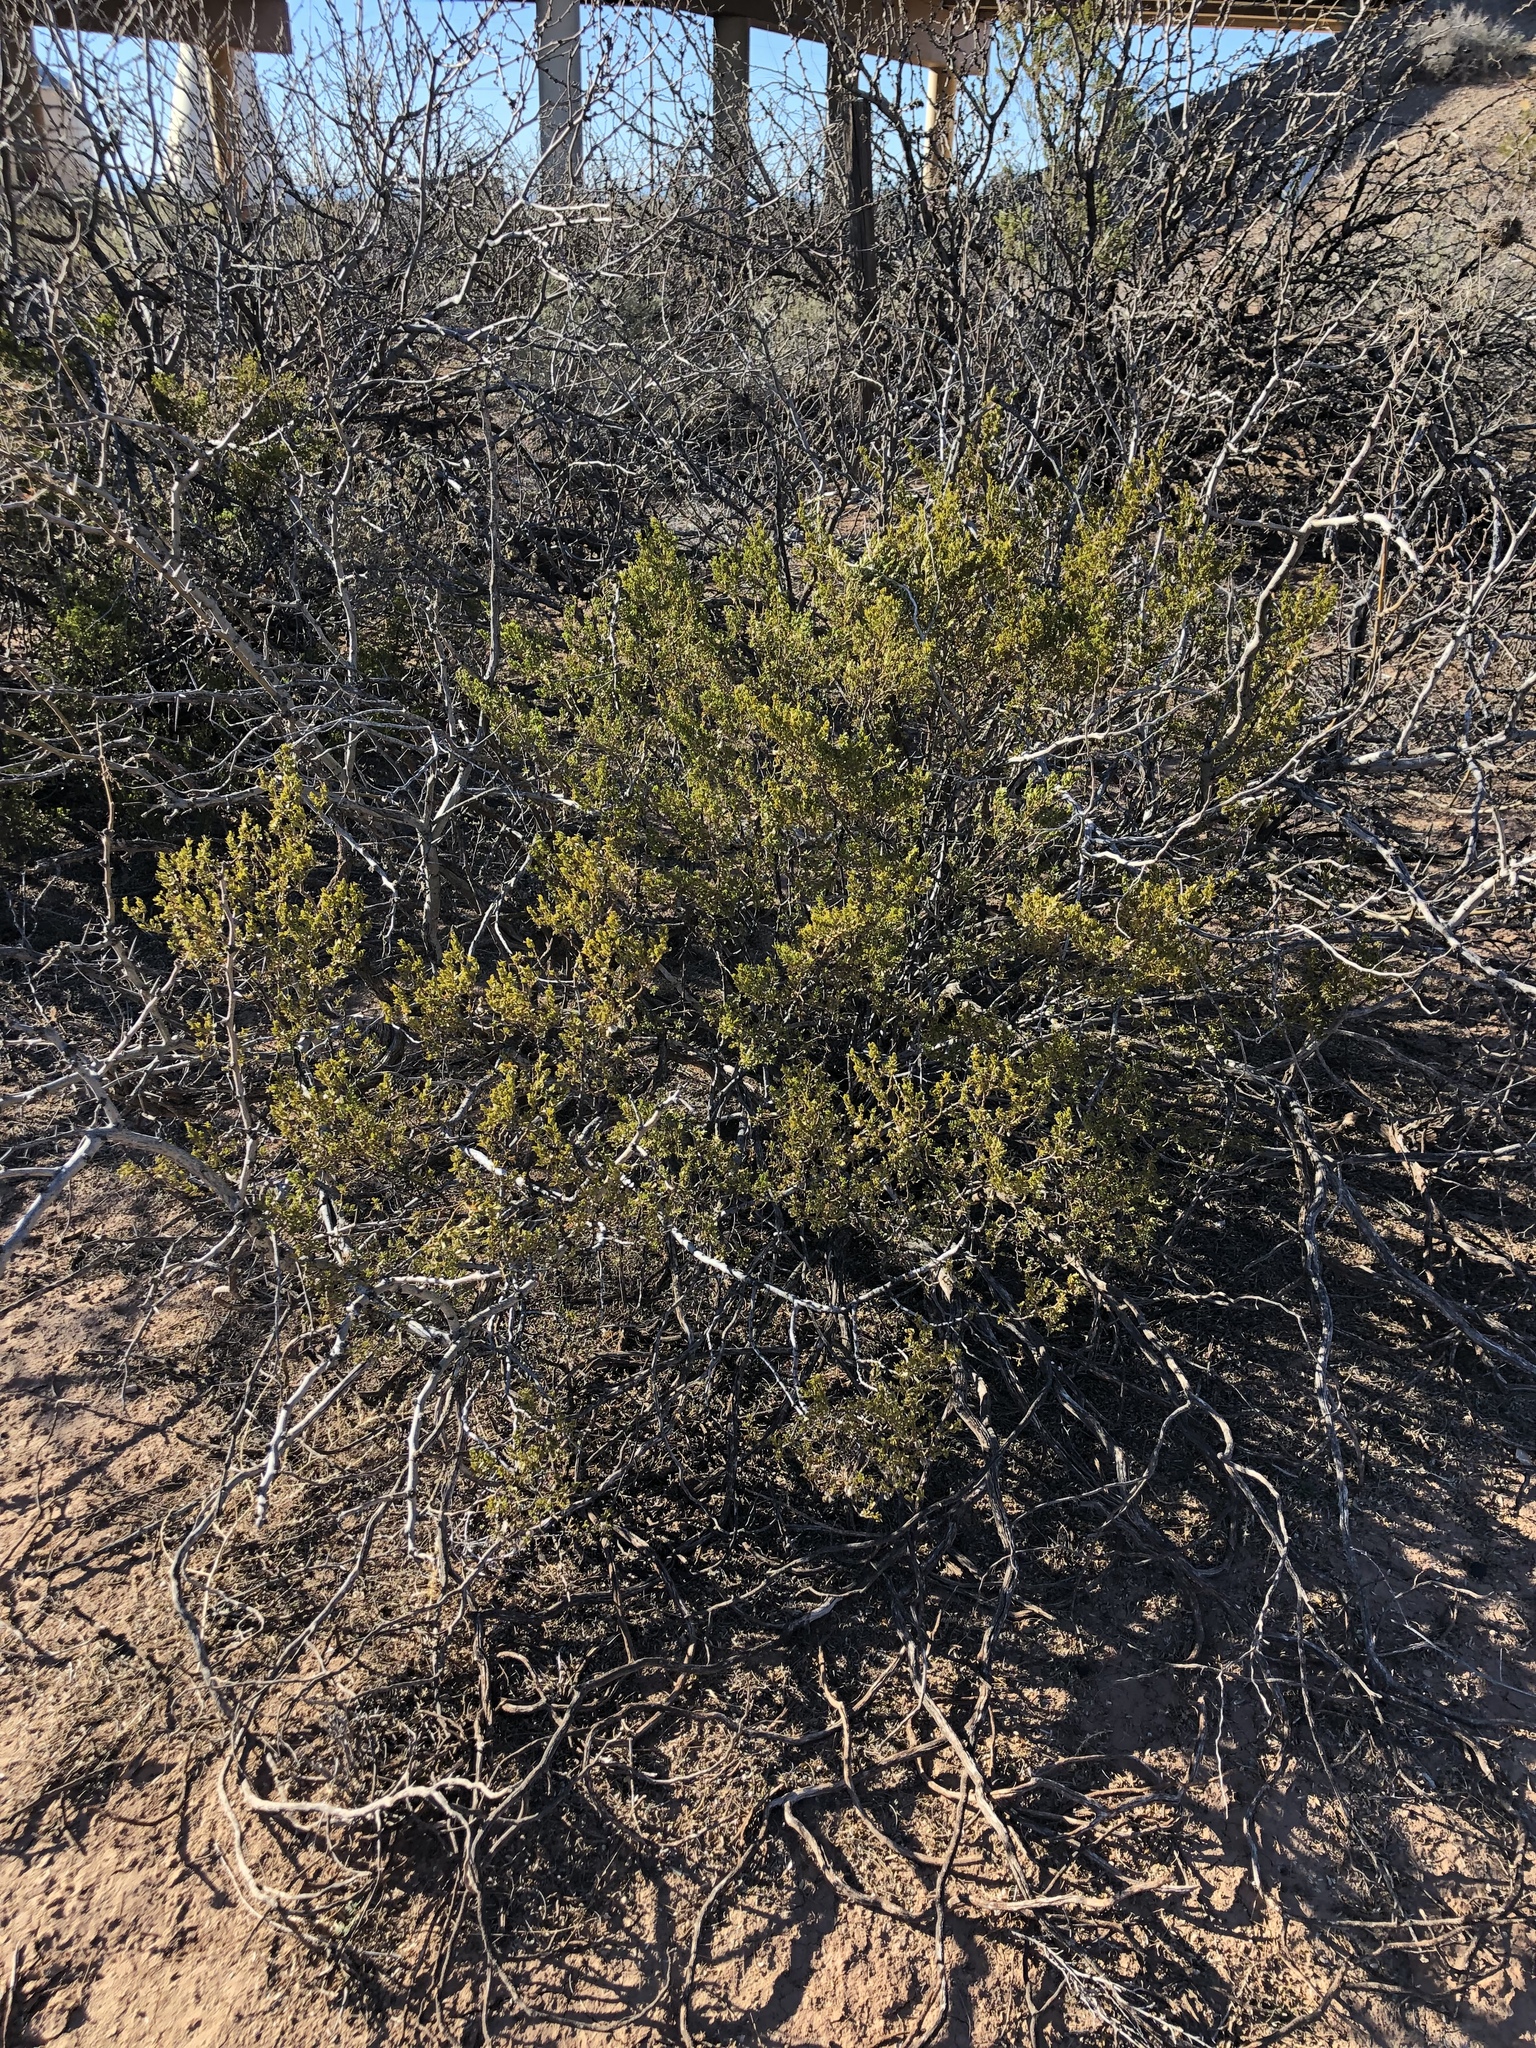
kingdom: Plantae
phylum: Tracheophyta
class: Magnoliopsida
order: Zygophyllales
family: Zygophyllaceae
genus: Larrea
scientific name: Larrea tridentata
